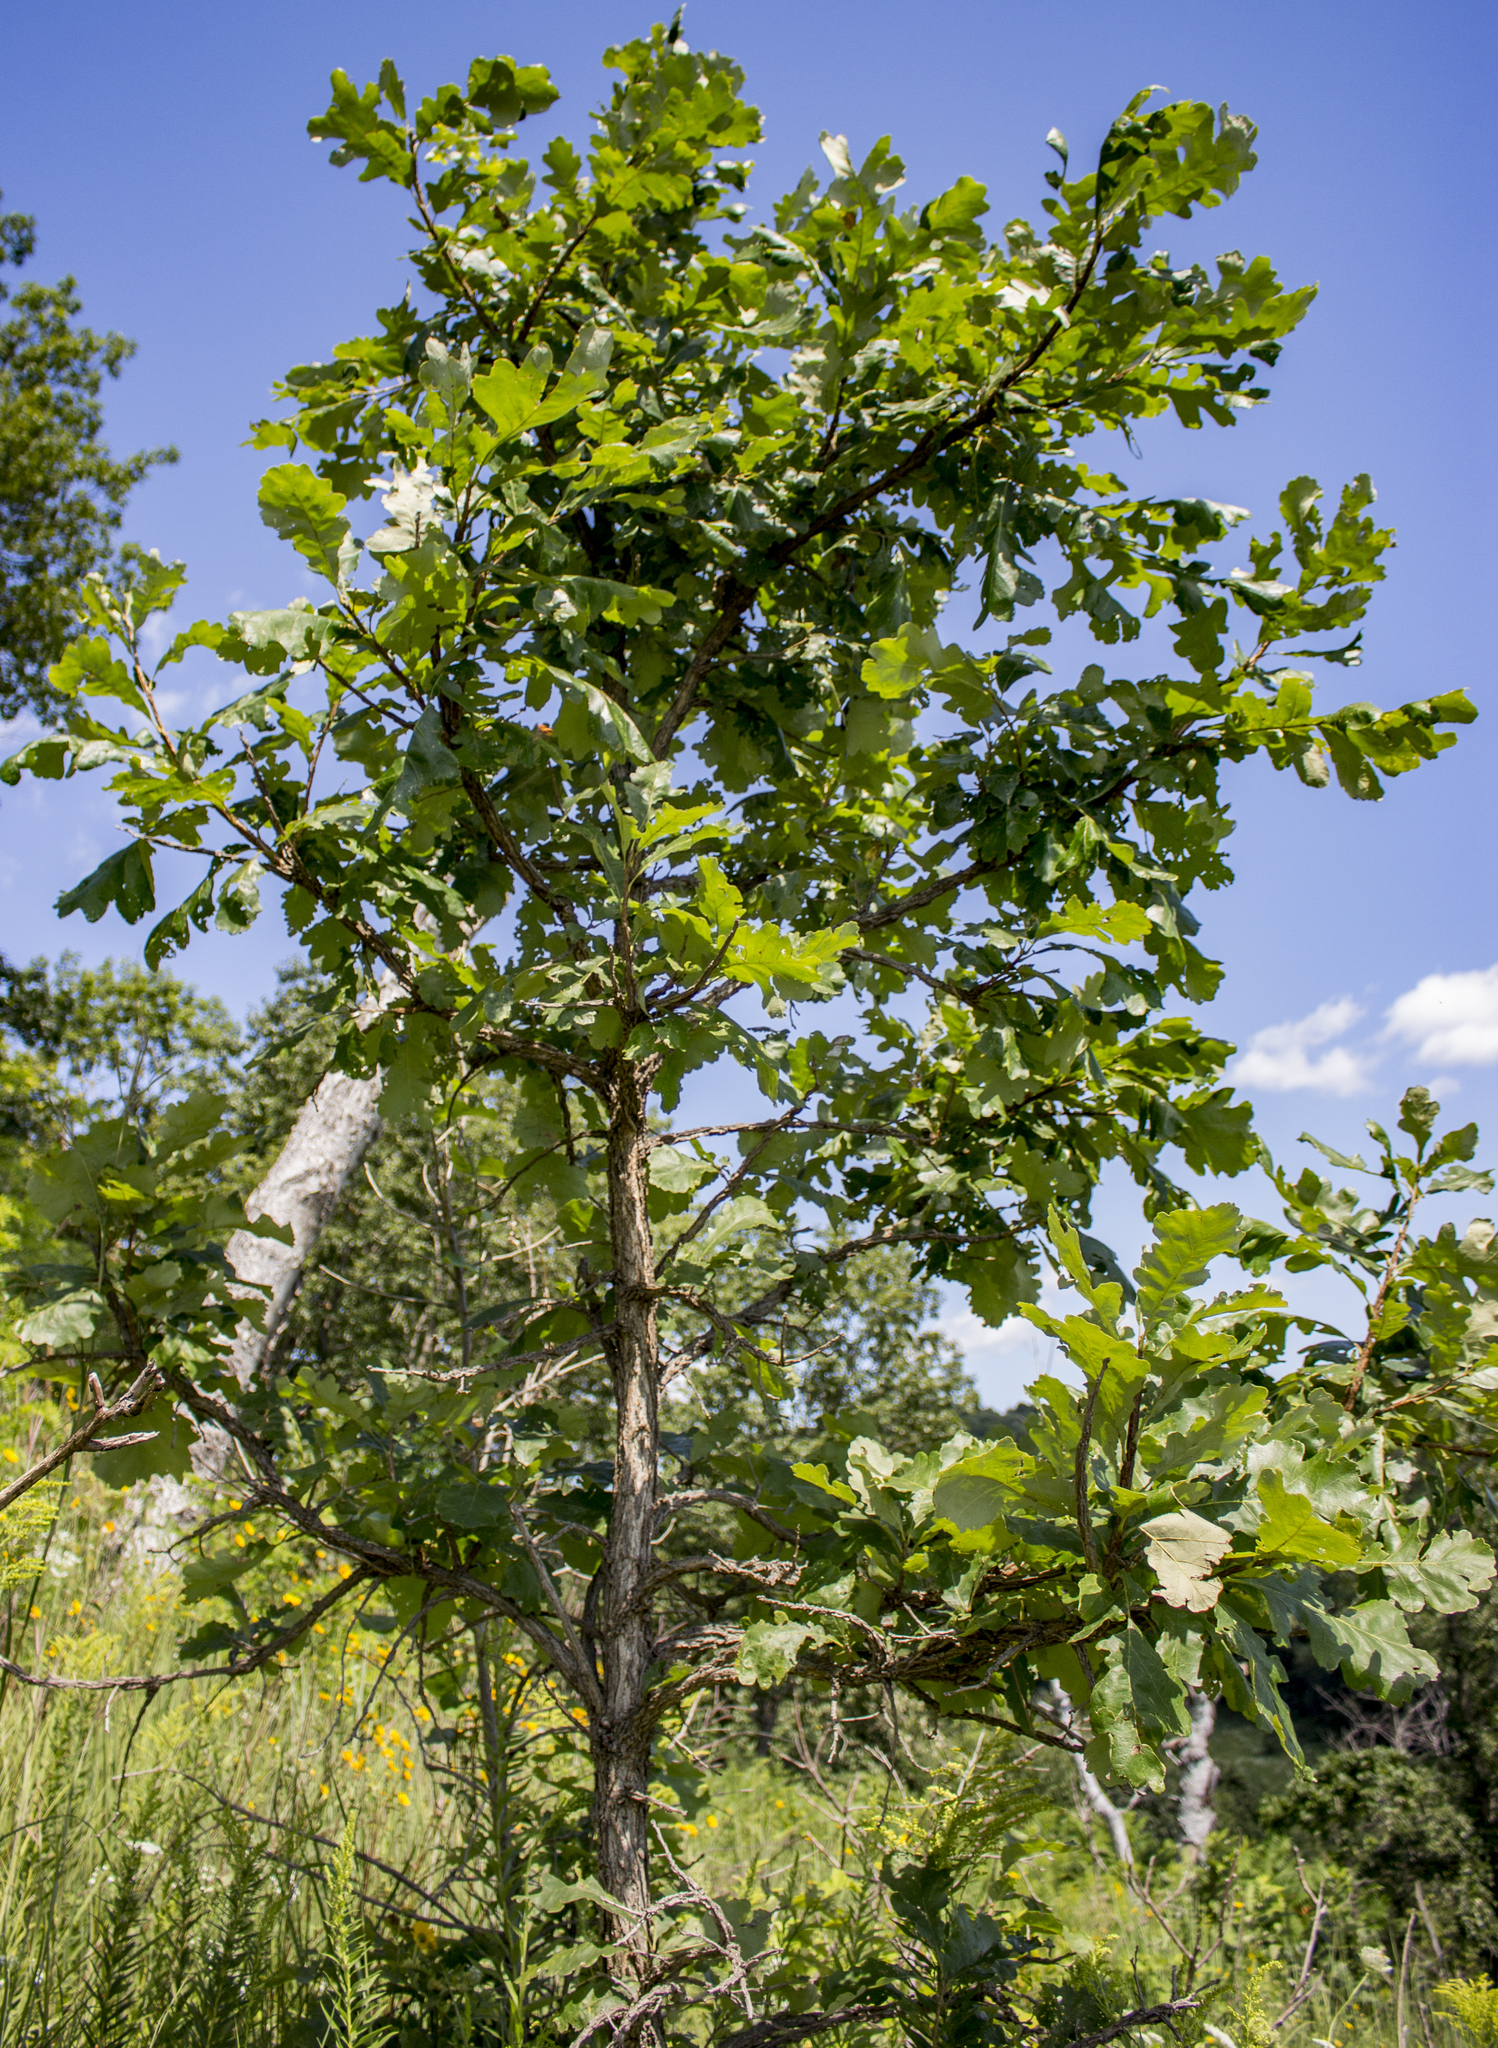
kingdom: Plantae
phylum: Tracheophyta
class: Magnoliopsida
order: Fagales
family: Fagaceae
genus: Quercus
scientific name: Quercus macrocarpa
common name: Bur oak
